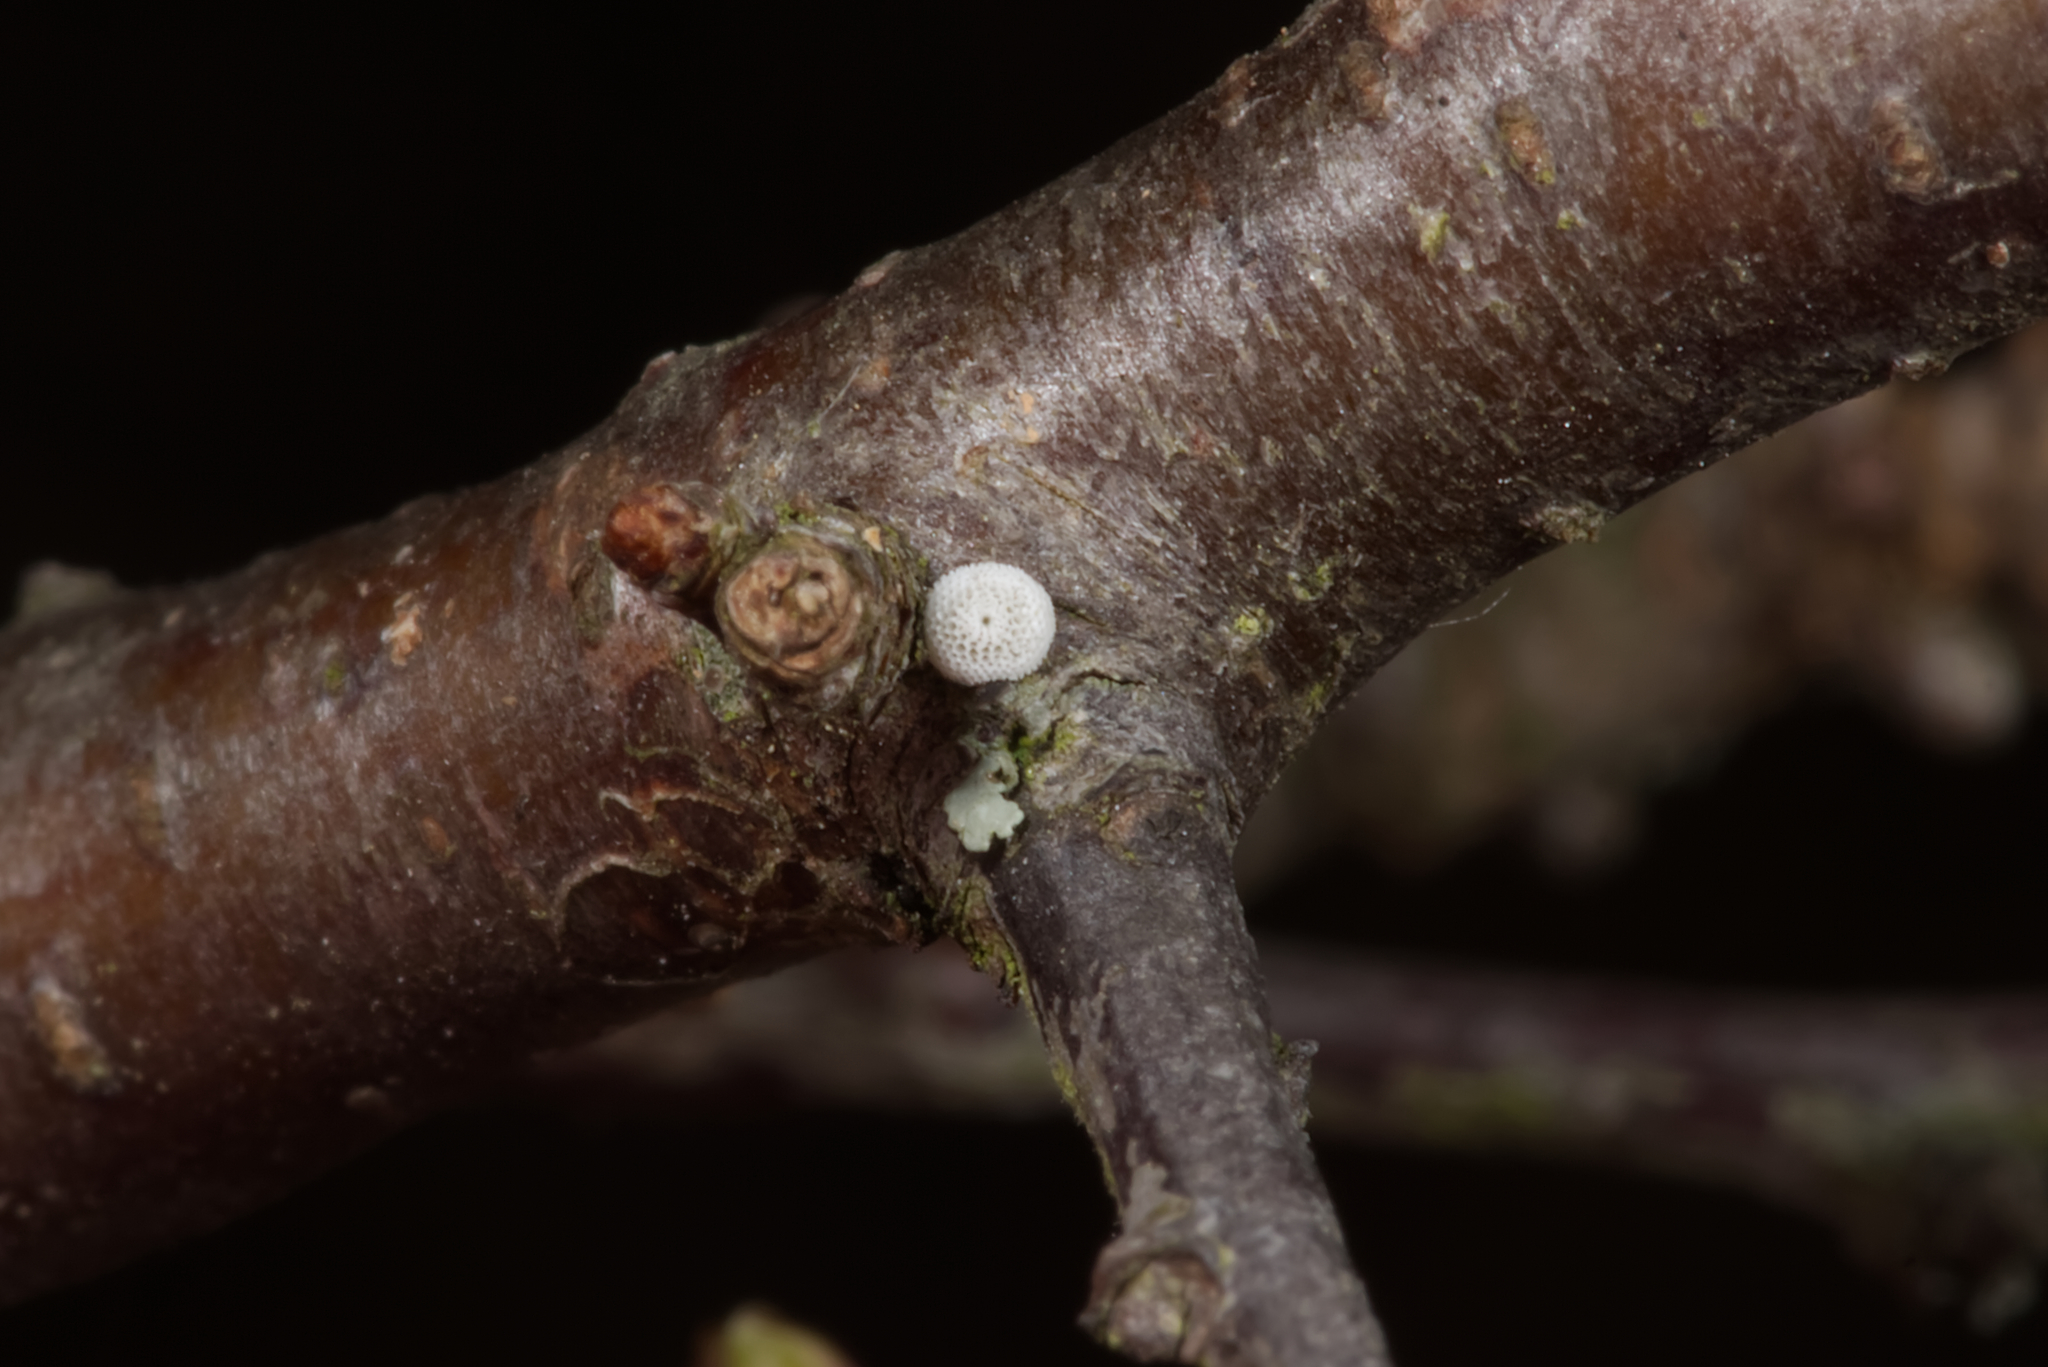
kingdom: Animalia
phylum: Arthropoda
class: Insecta
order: Lepidoptera
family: Lycaenidae
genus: Thecla
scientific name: Thecla betulae
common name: Brown hairstreak
